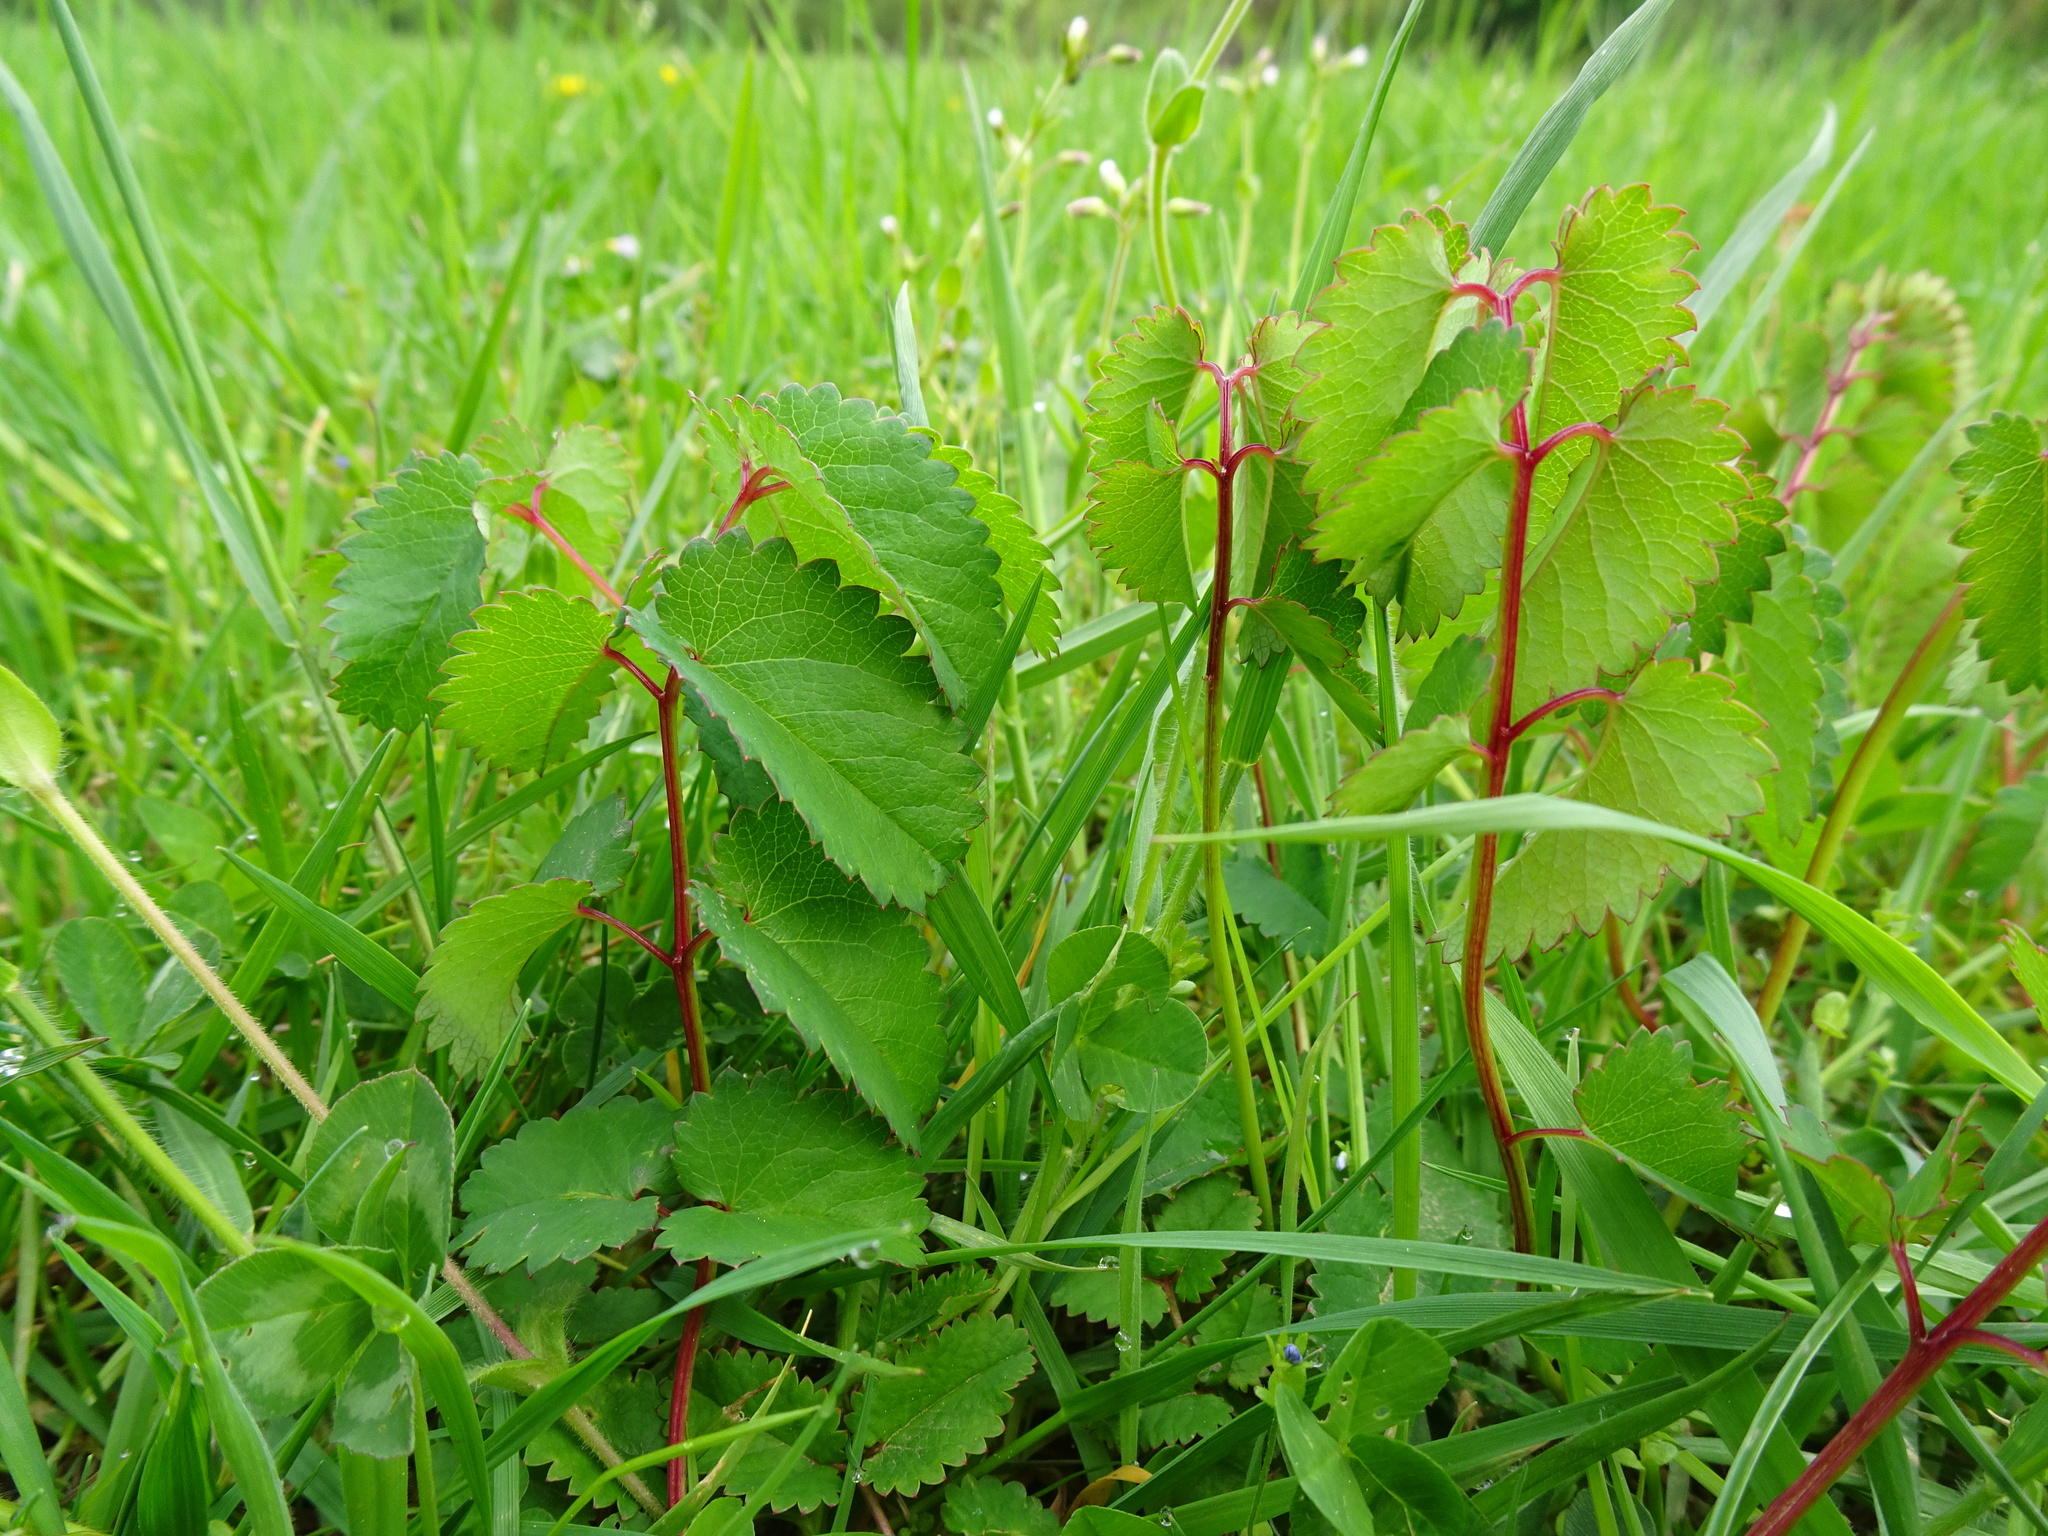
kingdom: Plantae
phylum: Tracheophyta
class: Magnoliopsida
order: Rosales
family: Rosaceae
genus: Sanguisorba
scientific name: Sanguisorba officinalis
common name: Great burnet
